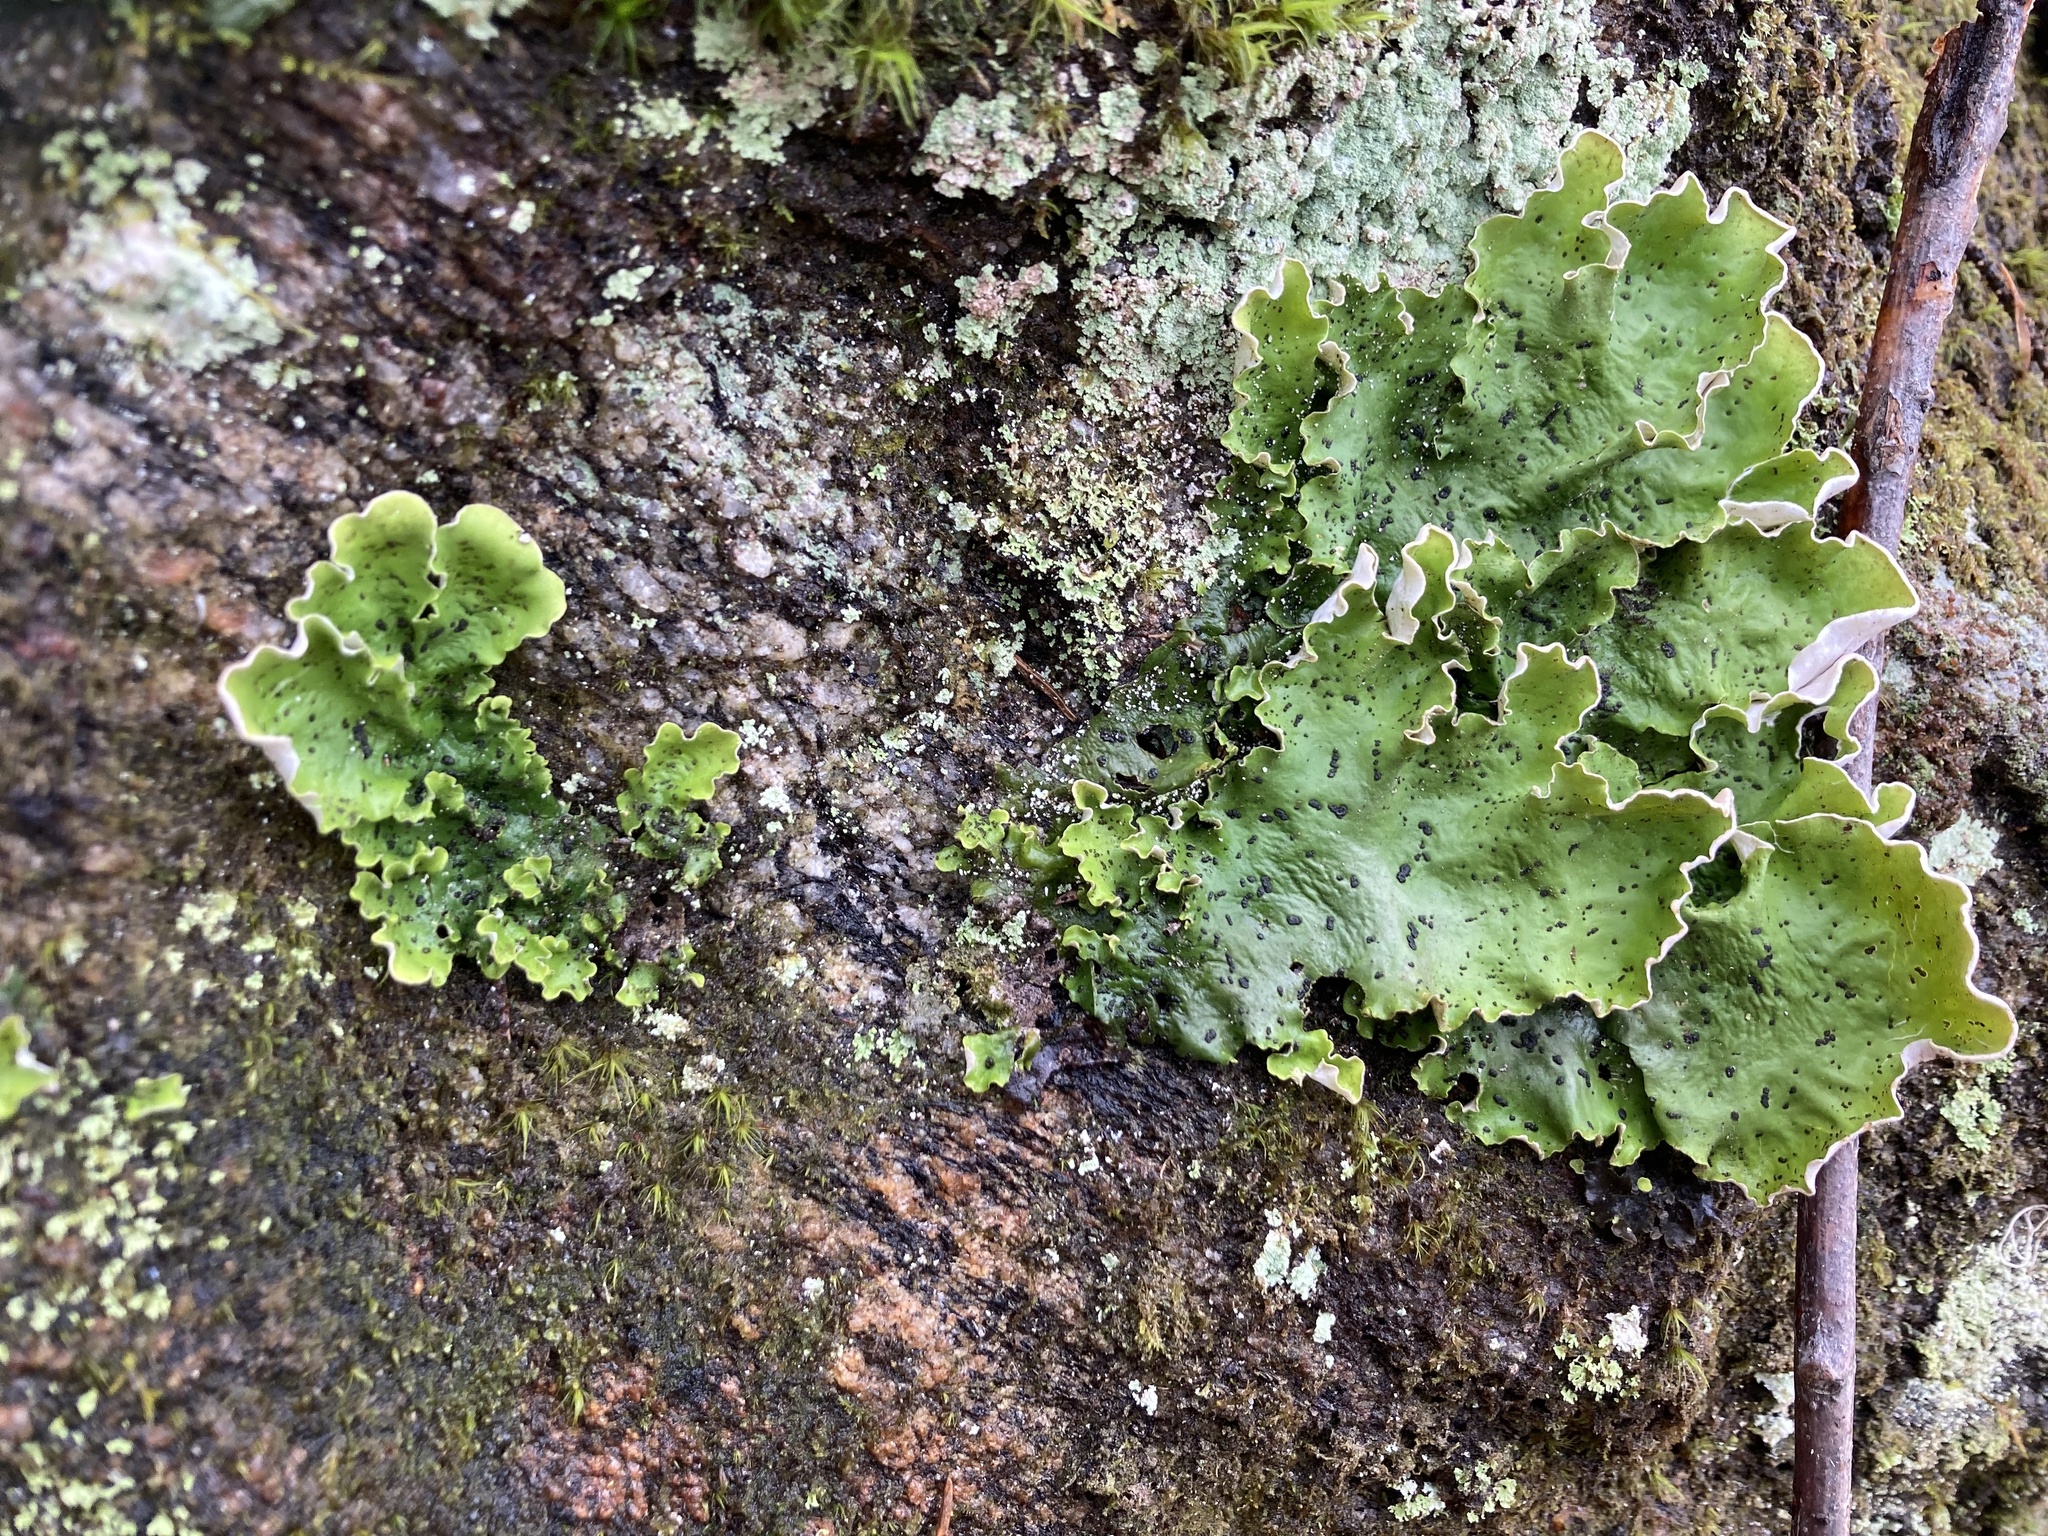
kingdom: Fungi
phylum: Ascomycota
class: Lecanoromycetes
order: Peltigerales
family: Peltigeraceae
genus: Peltigera
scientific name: Peltigera aphthosa
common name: Common freckle pelt lichen
